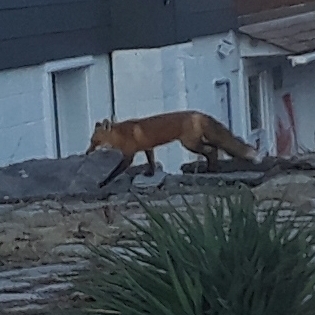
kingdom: Animalia
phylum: Chordata
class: Mammalia
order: Carnivora
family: Canidae
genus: Vulpes
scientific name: Vulpes vulpes
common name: Red fox
